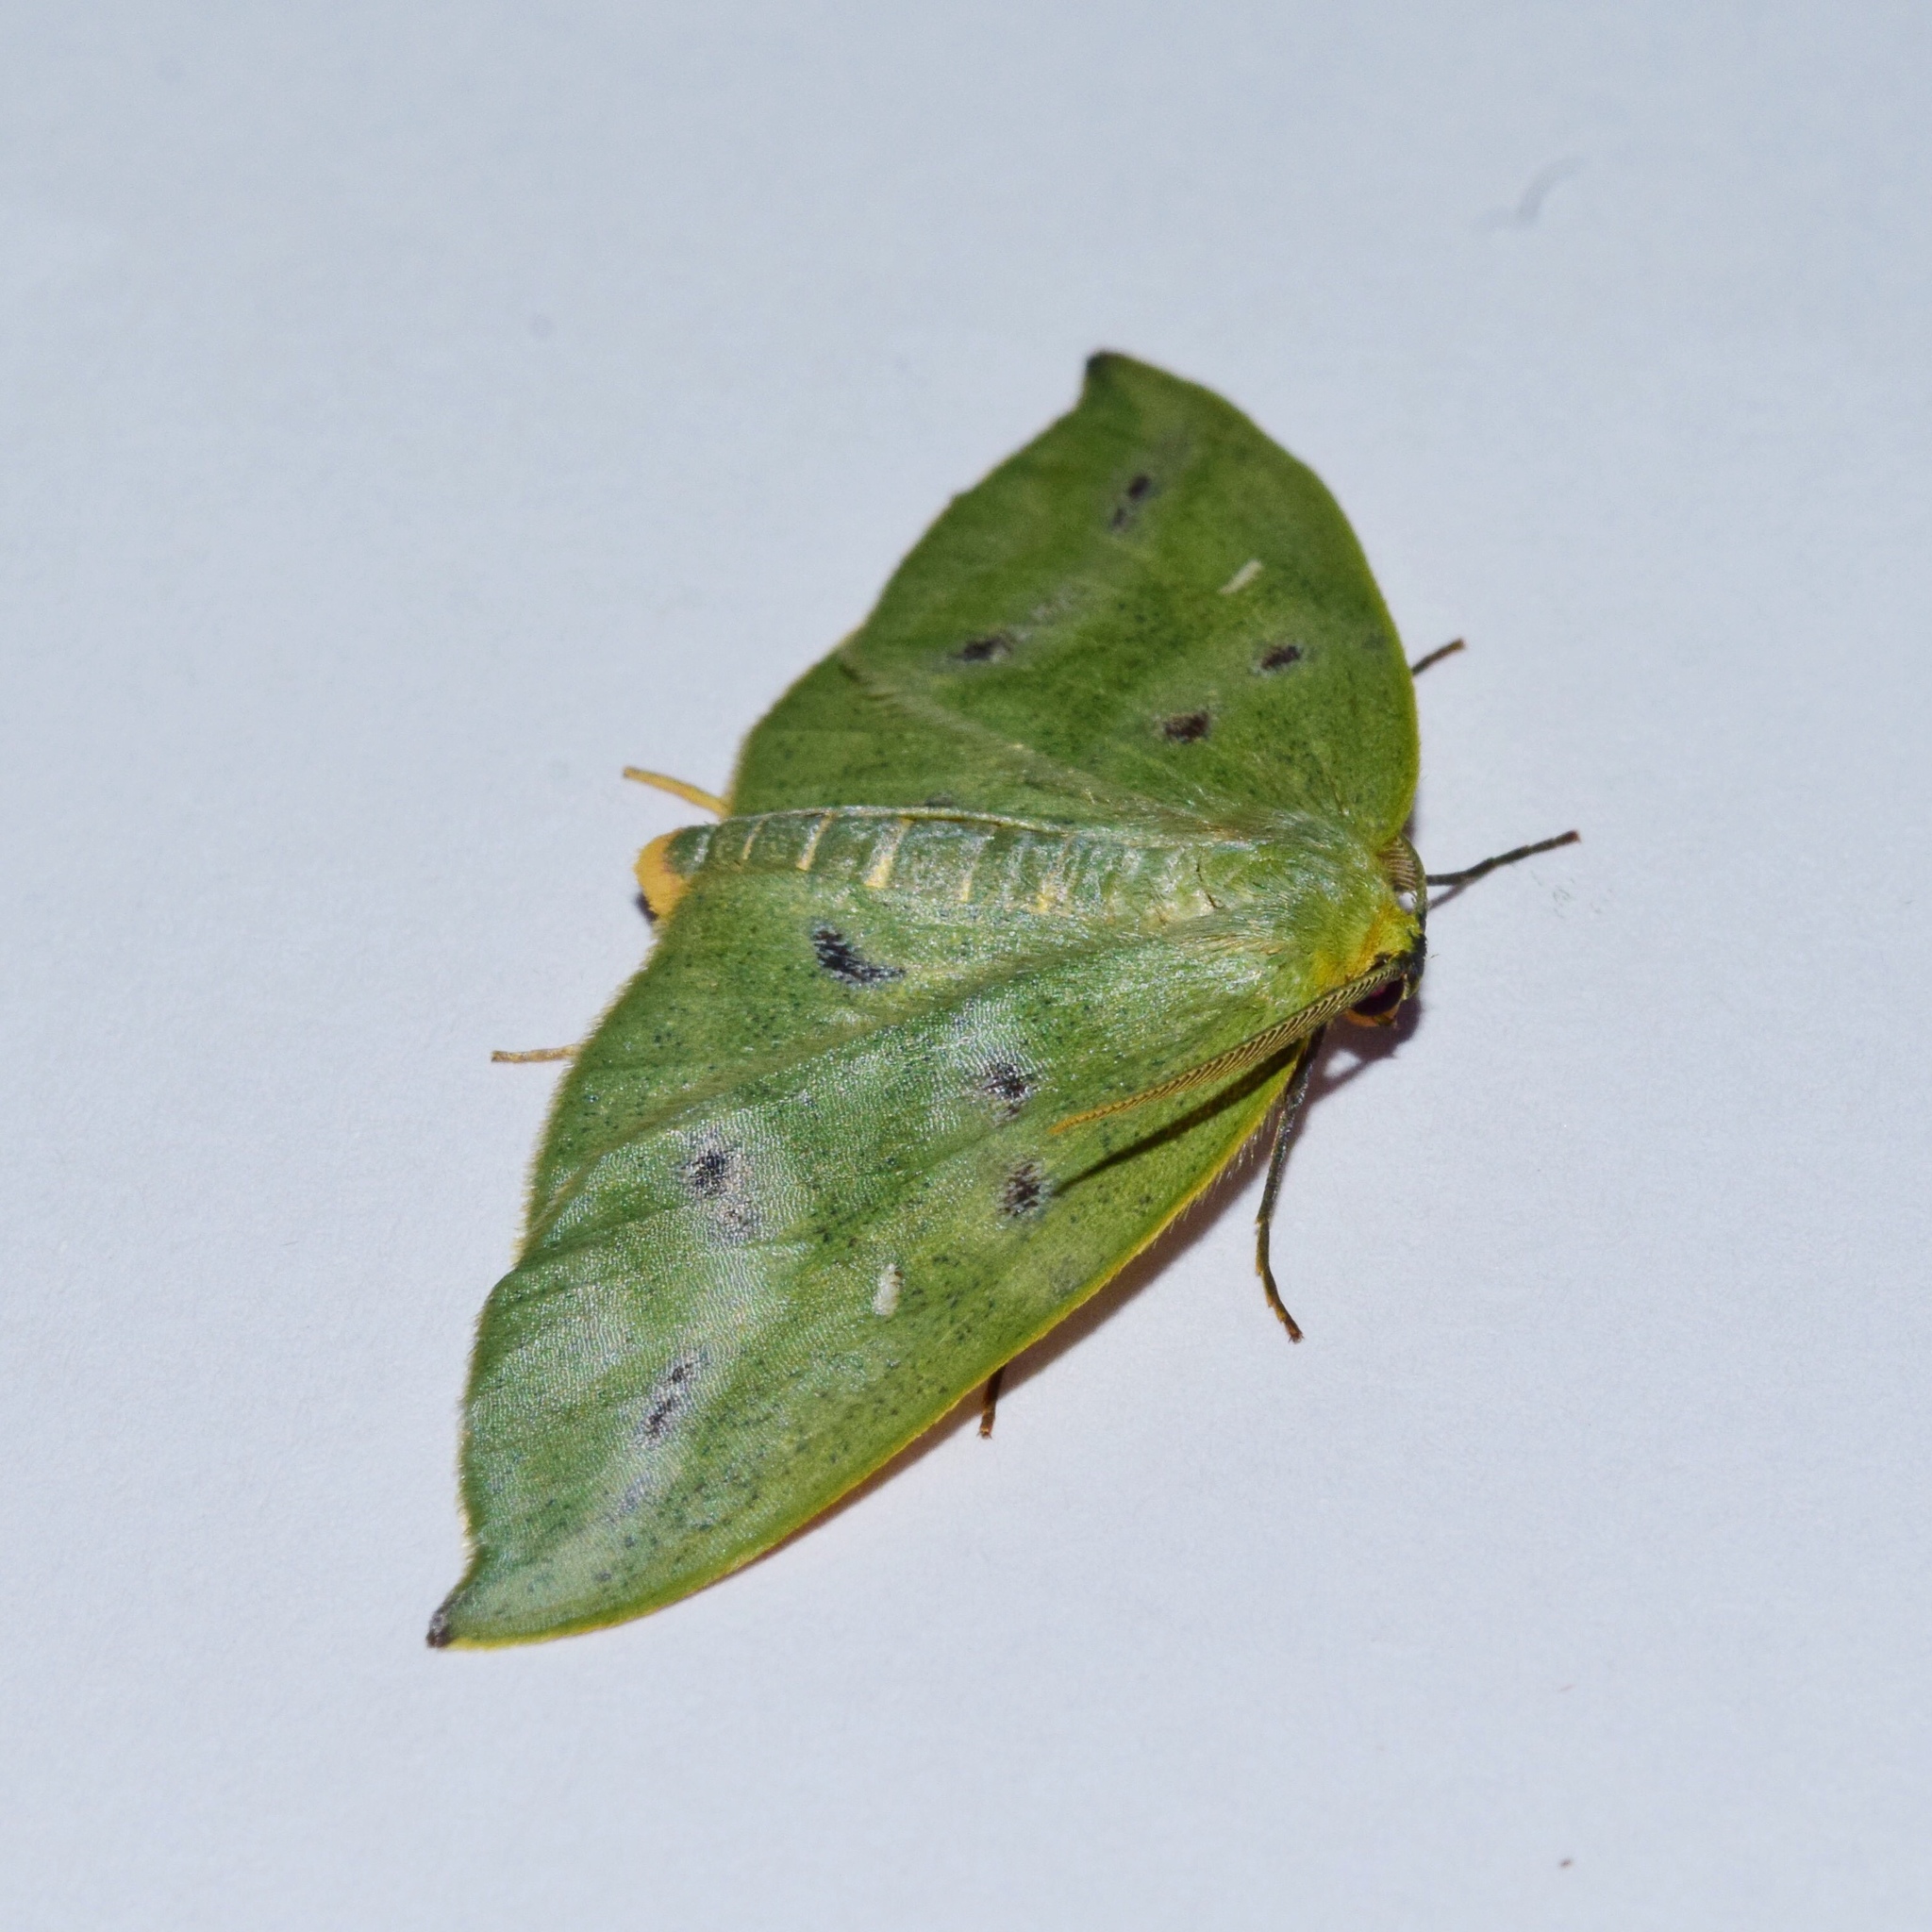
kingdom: Animalia
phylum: Arthropoda
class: Insecta
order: Lepidoptera
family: Geometridae
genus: Hypochrosis
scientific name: Hypochrosis meridionalis
